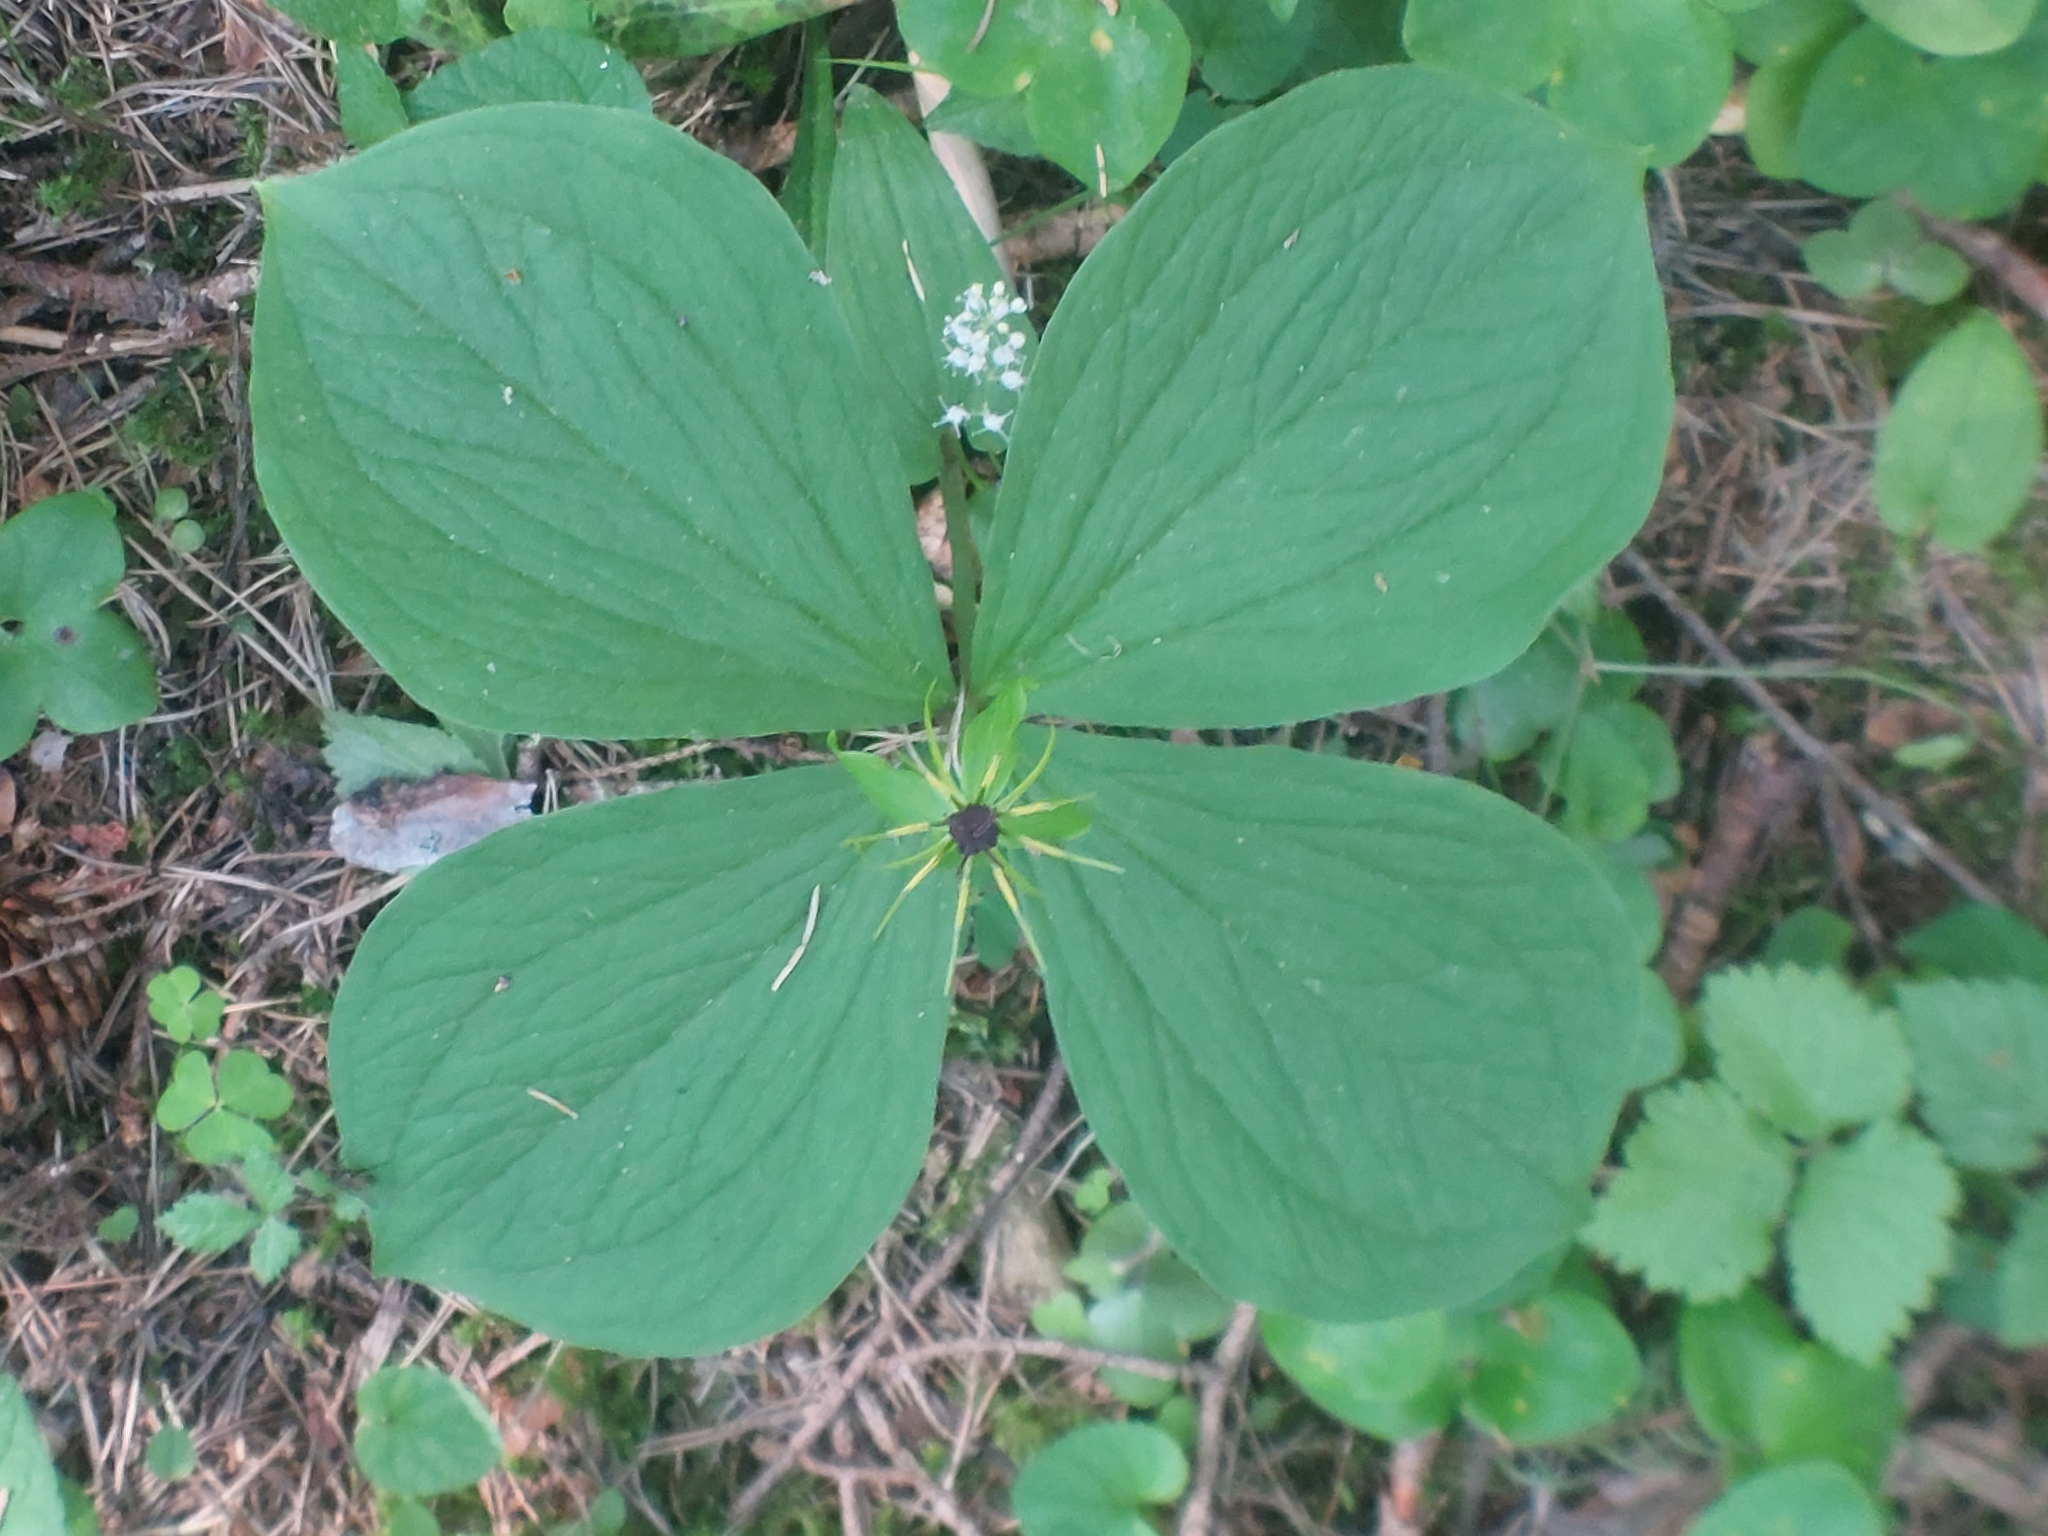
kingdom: Plantae
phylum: Tracheophyta
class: Liliopsida
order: Liliales
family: Melanthiaceae
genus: Paris
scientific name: Paris quadrifolia
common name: Herb-paris
